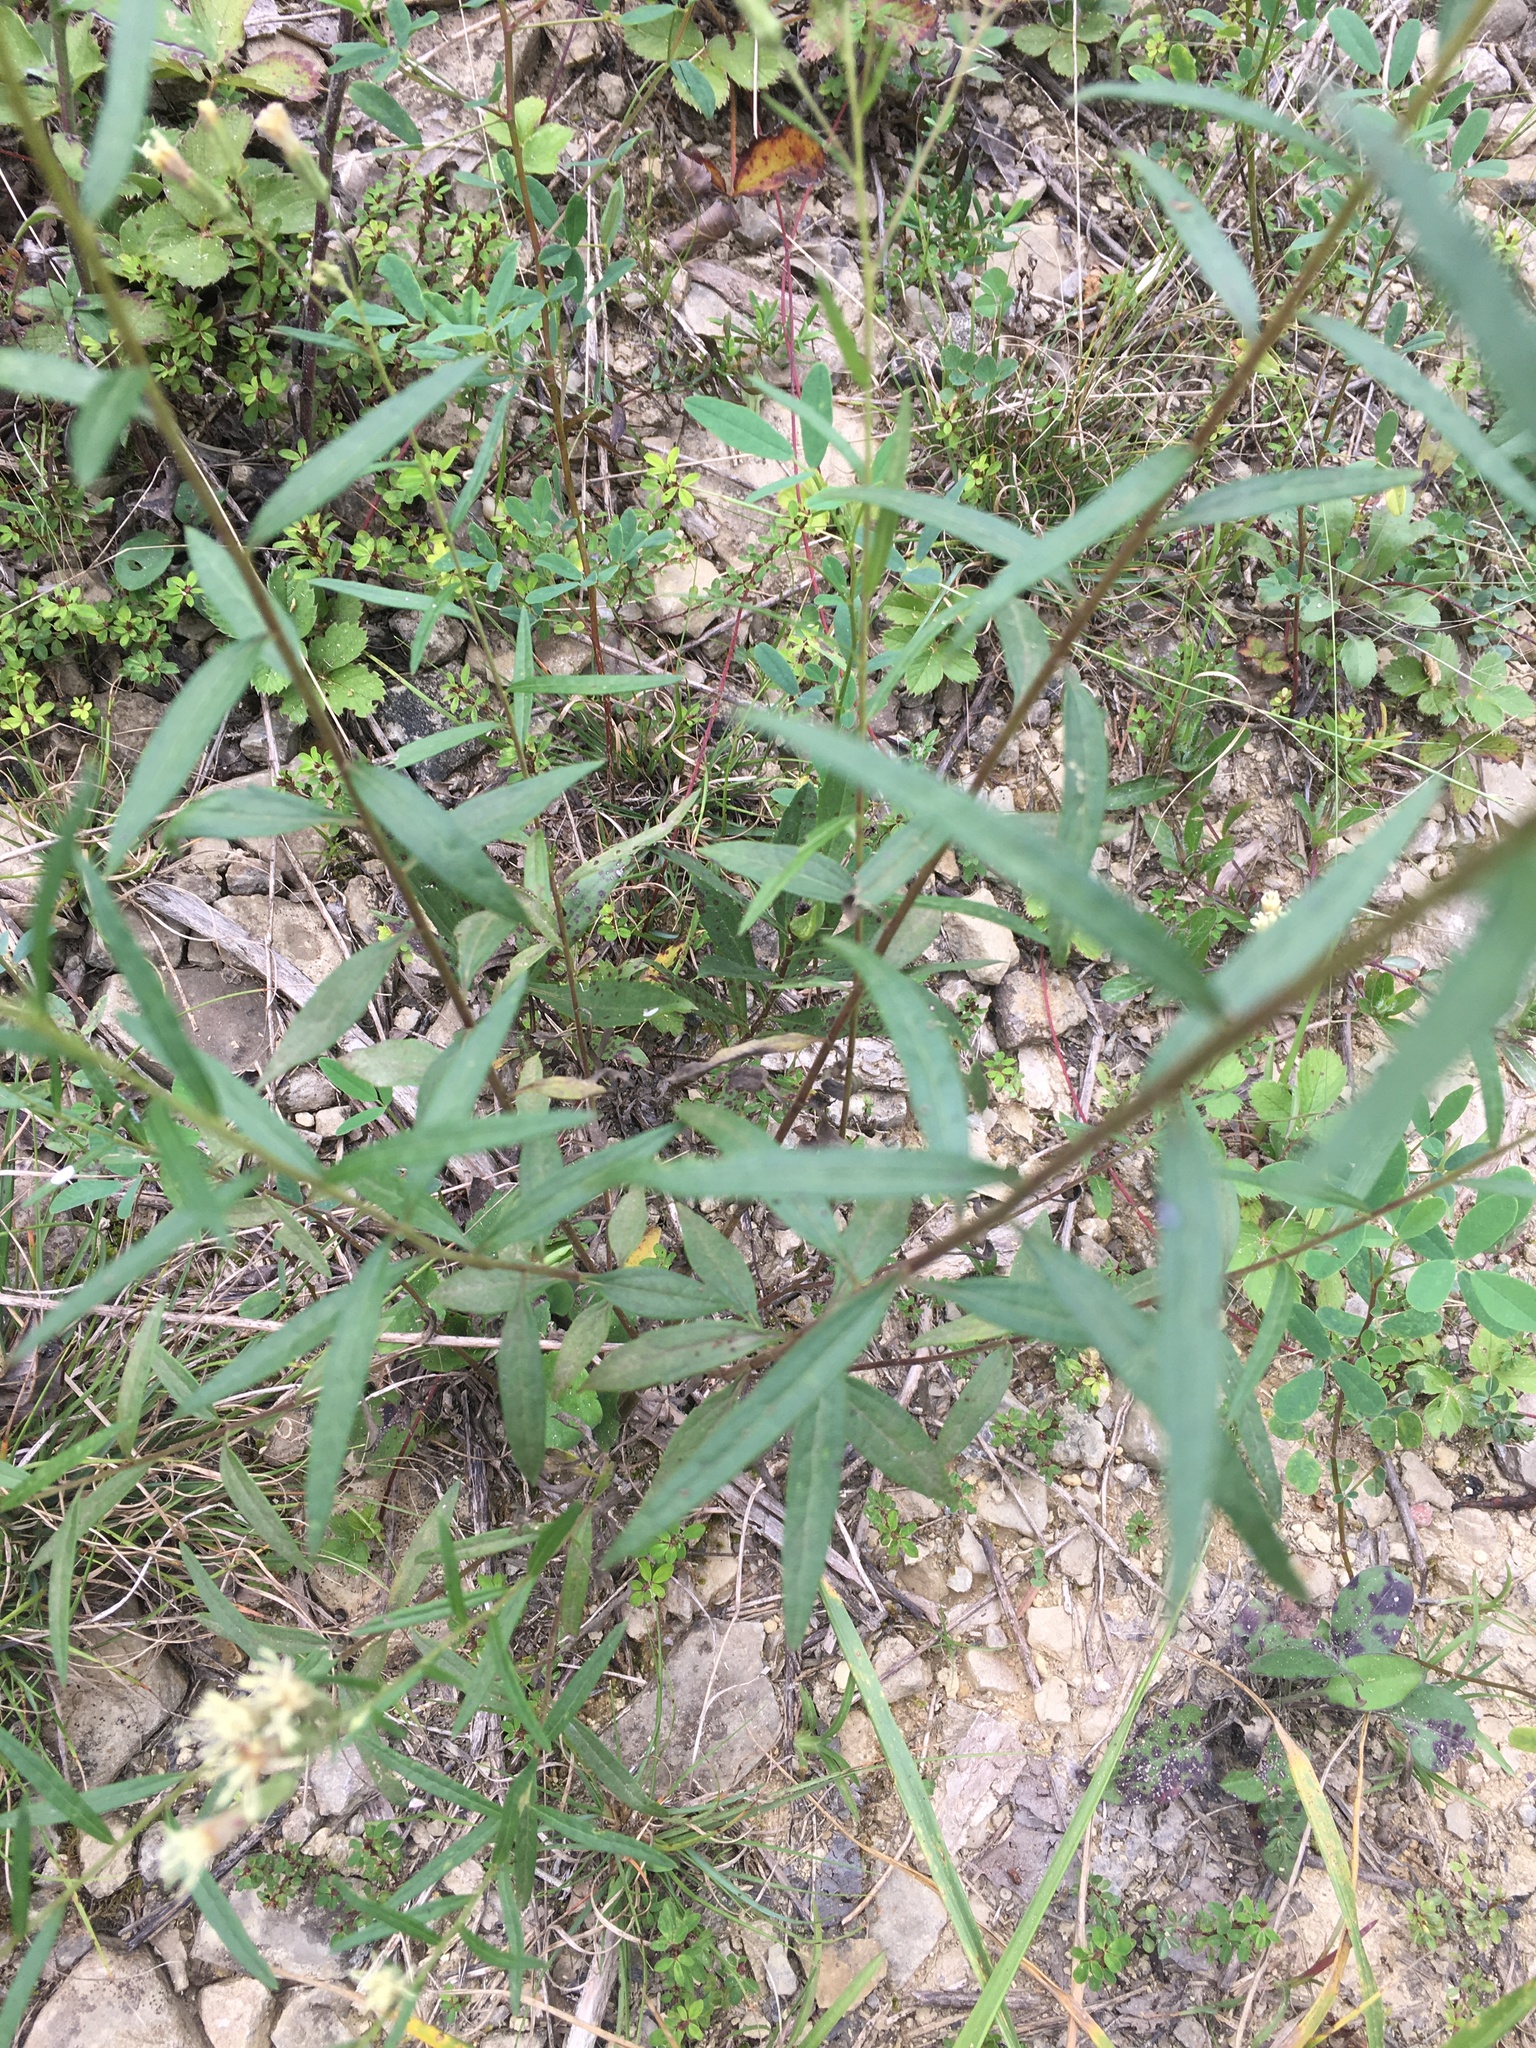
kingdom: Plantae
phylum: Tracheophyta
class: Magnoliopsida
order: Asterales
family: Asteraceae
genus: Brickellia
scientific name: Brickellia eupatorioides
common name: False boneset
